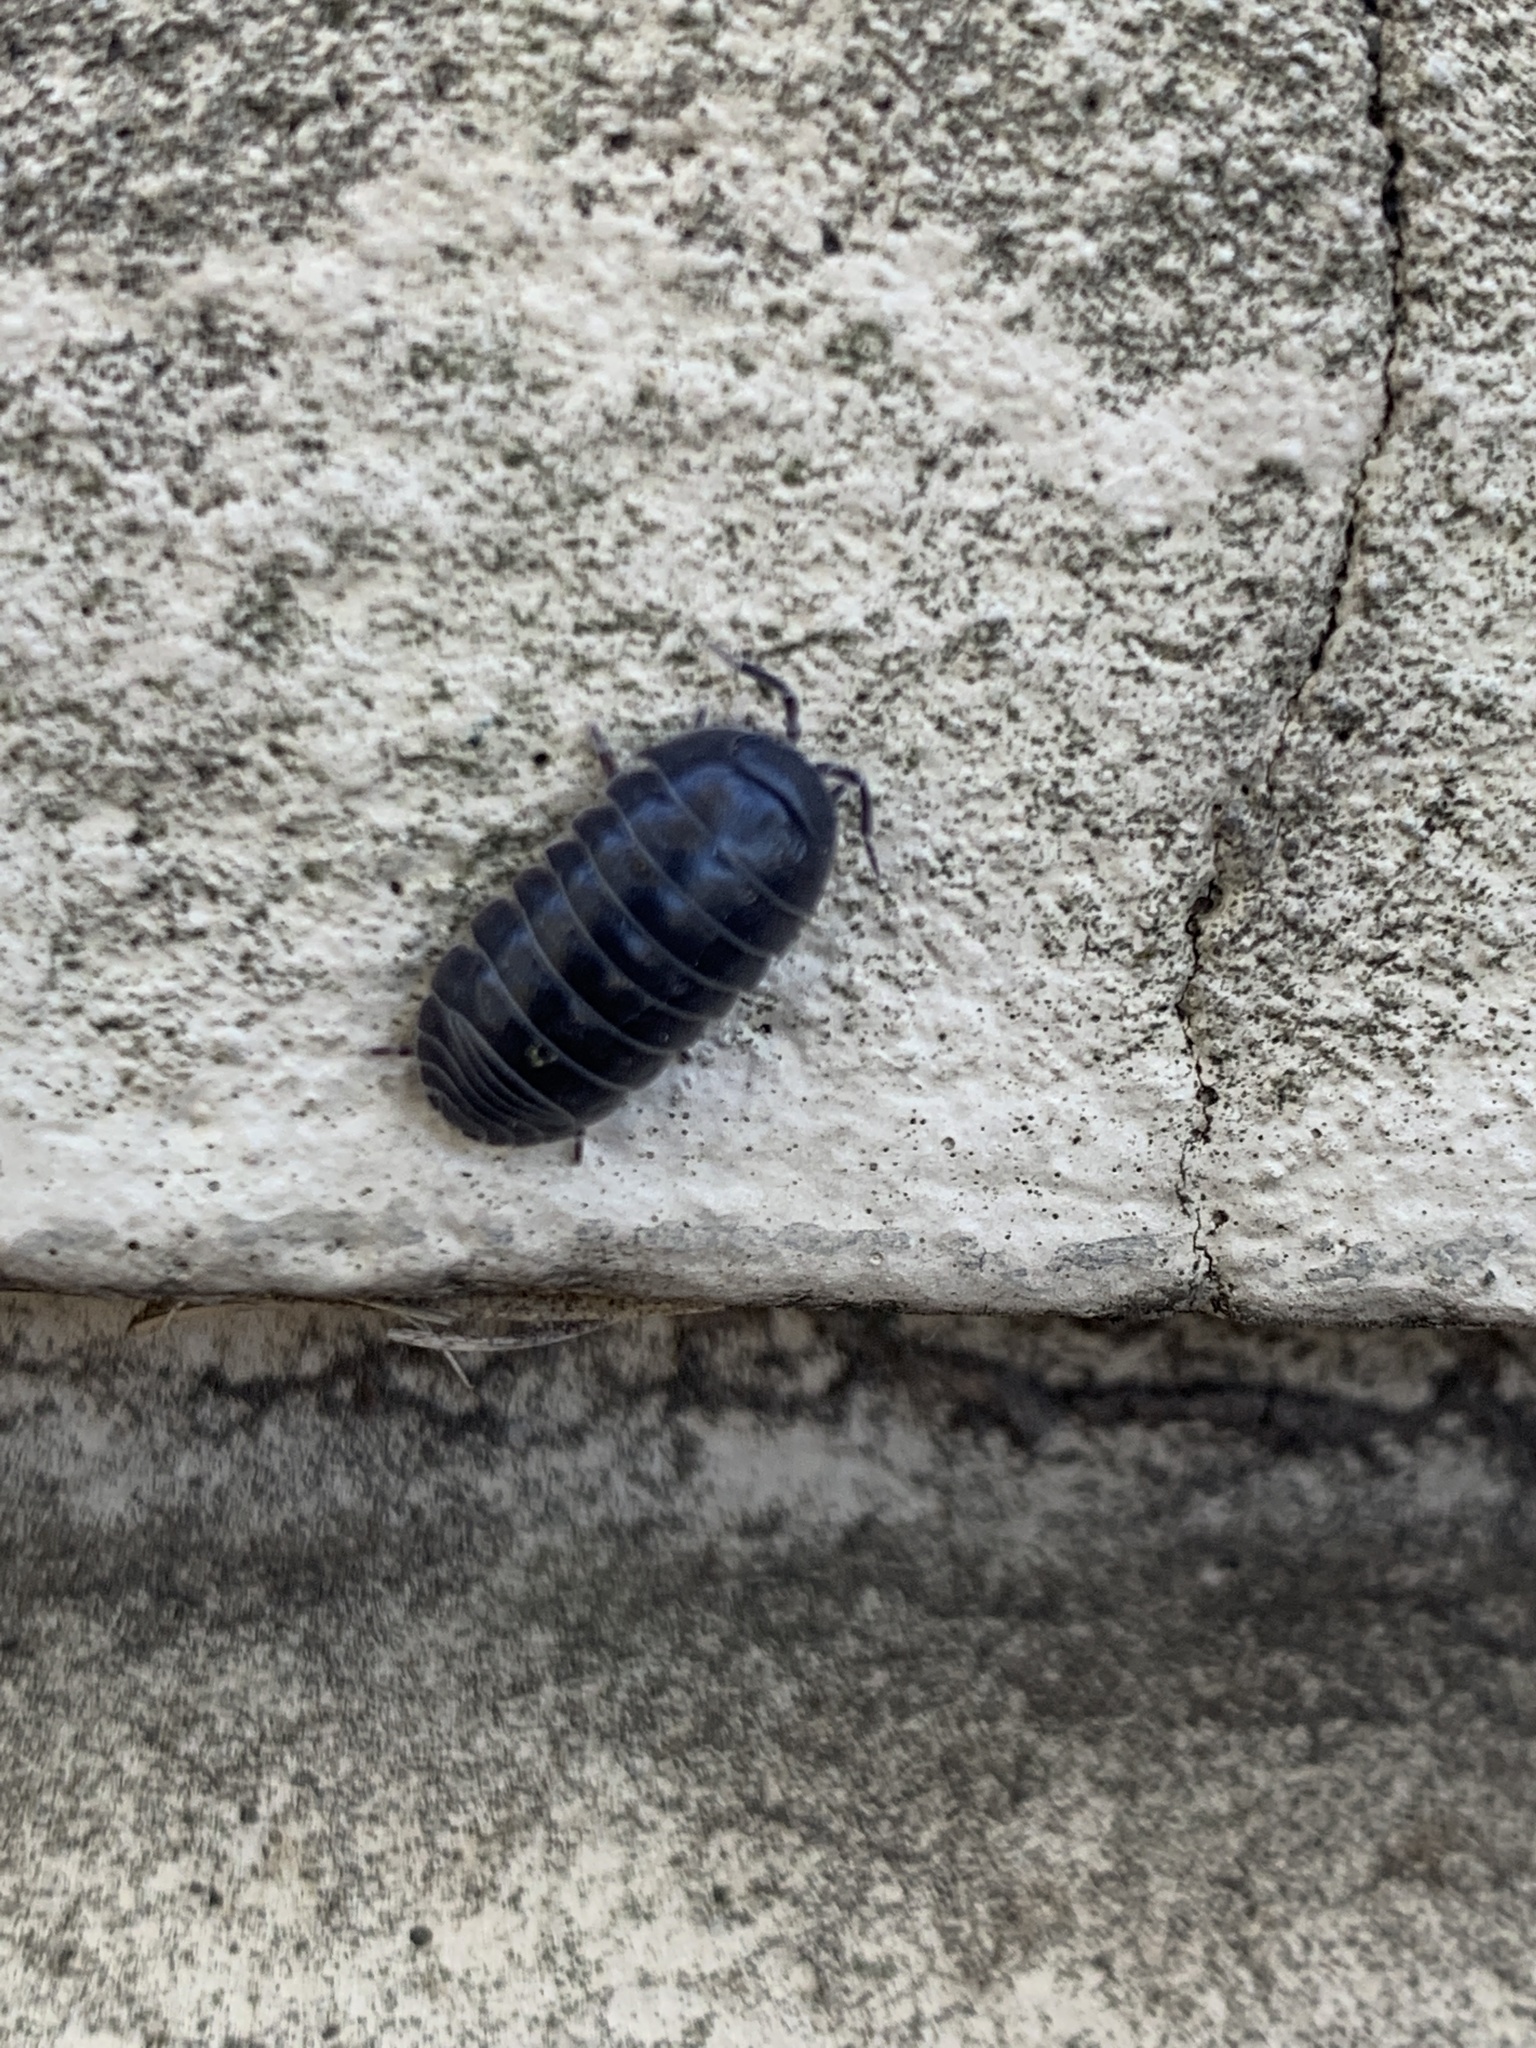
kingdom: Animalia
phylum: Arthropoda
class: Malacostraca
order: Isopoda
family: Armadillidiidae
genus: Armadillidium
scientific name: Armadillidium vulgare
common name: Common pill woodlouse
